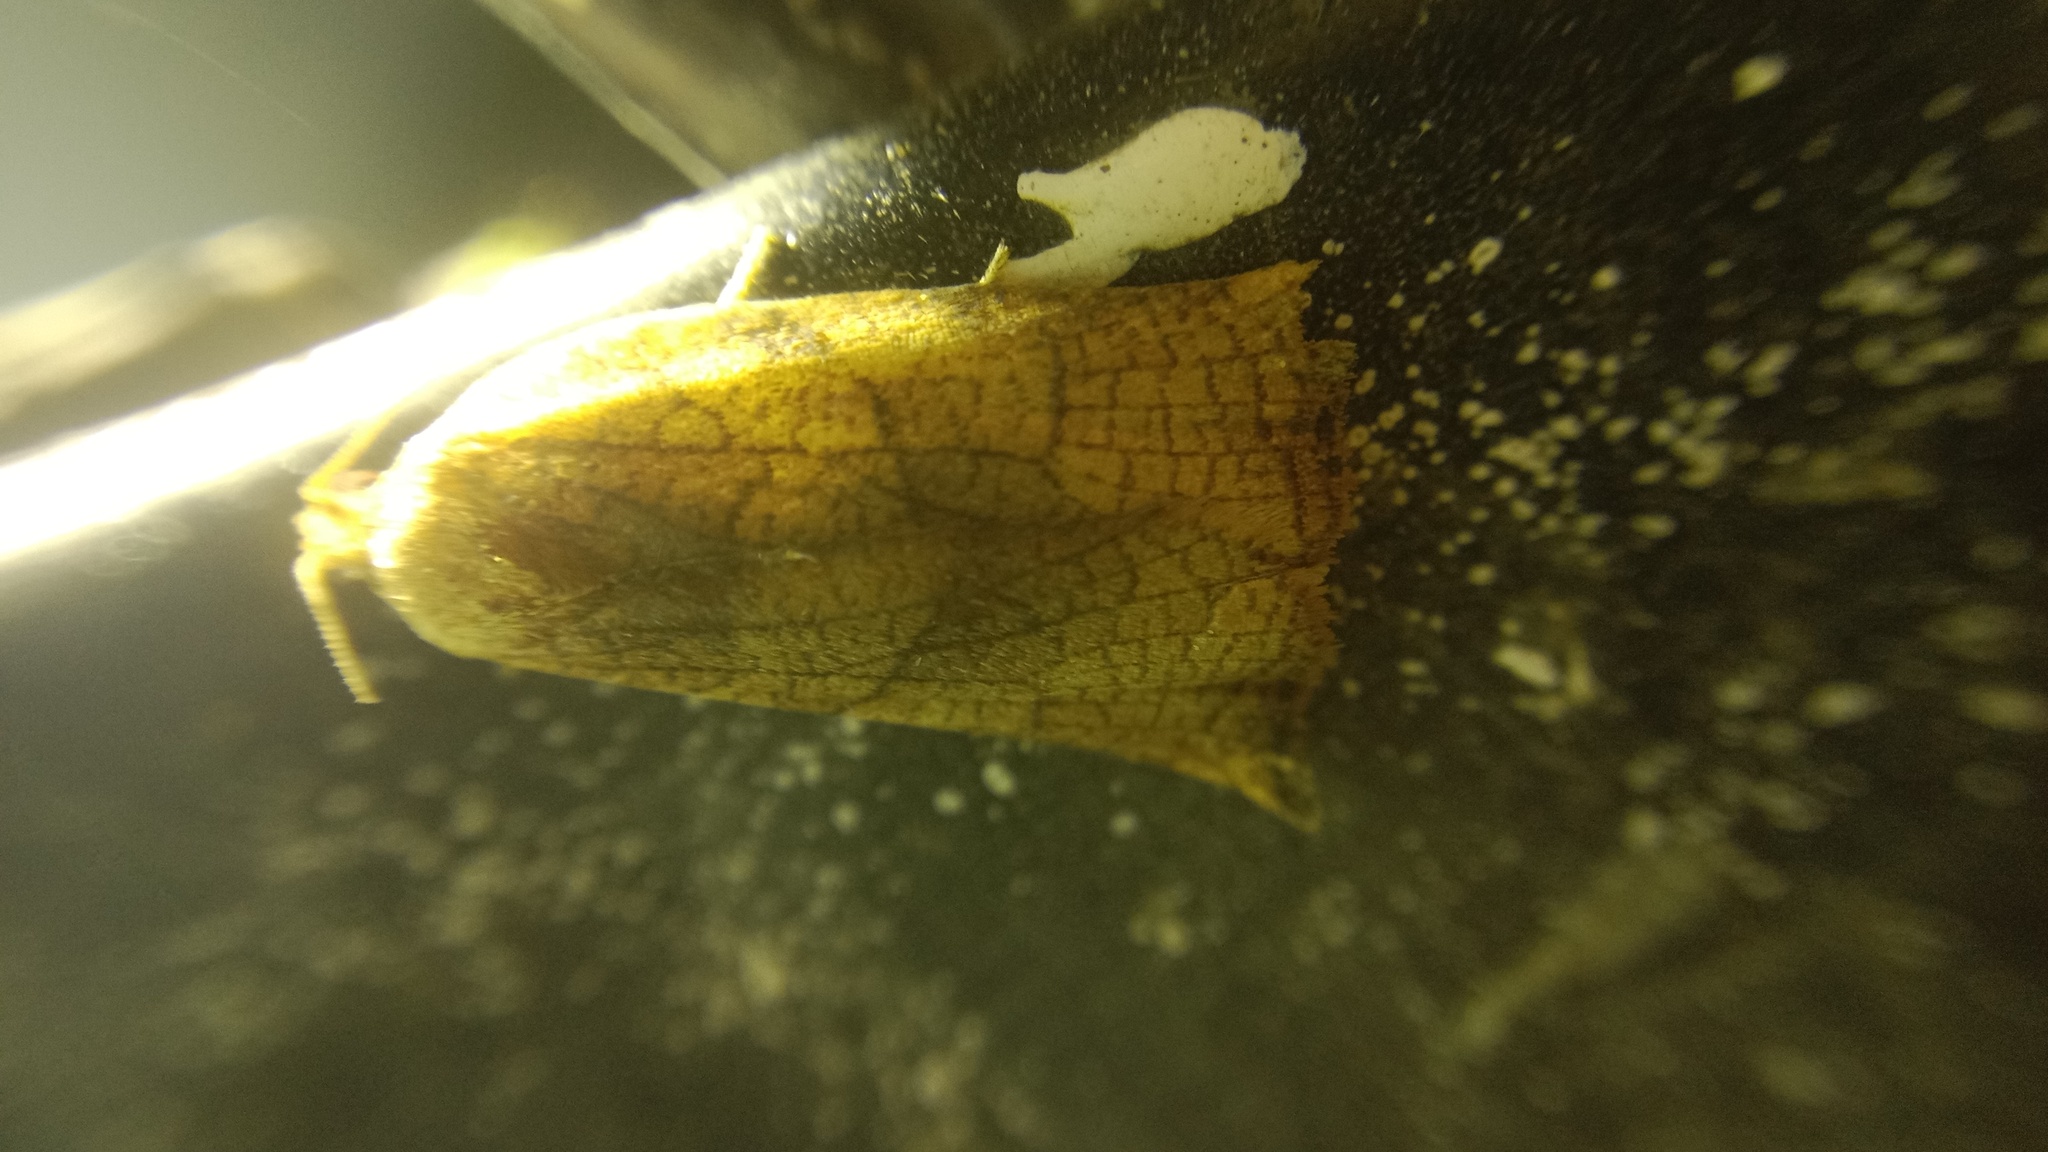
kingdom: Animalia
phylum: Arthropoda
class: Insecta
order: Lepidoptera
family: Tortricidae
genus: Archips
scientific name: Archips podana
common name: Large fruit-tree tortrix
